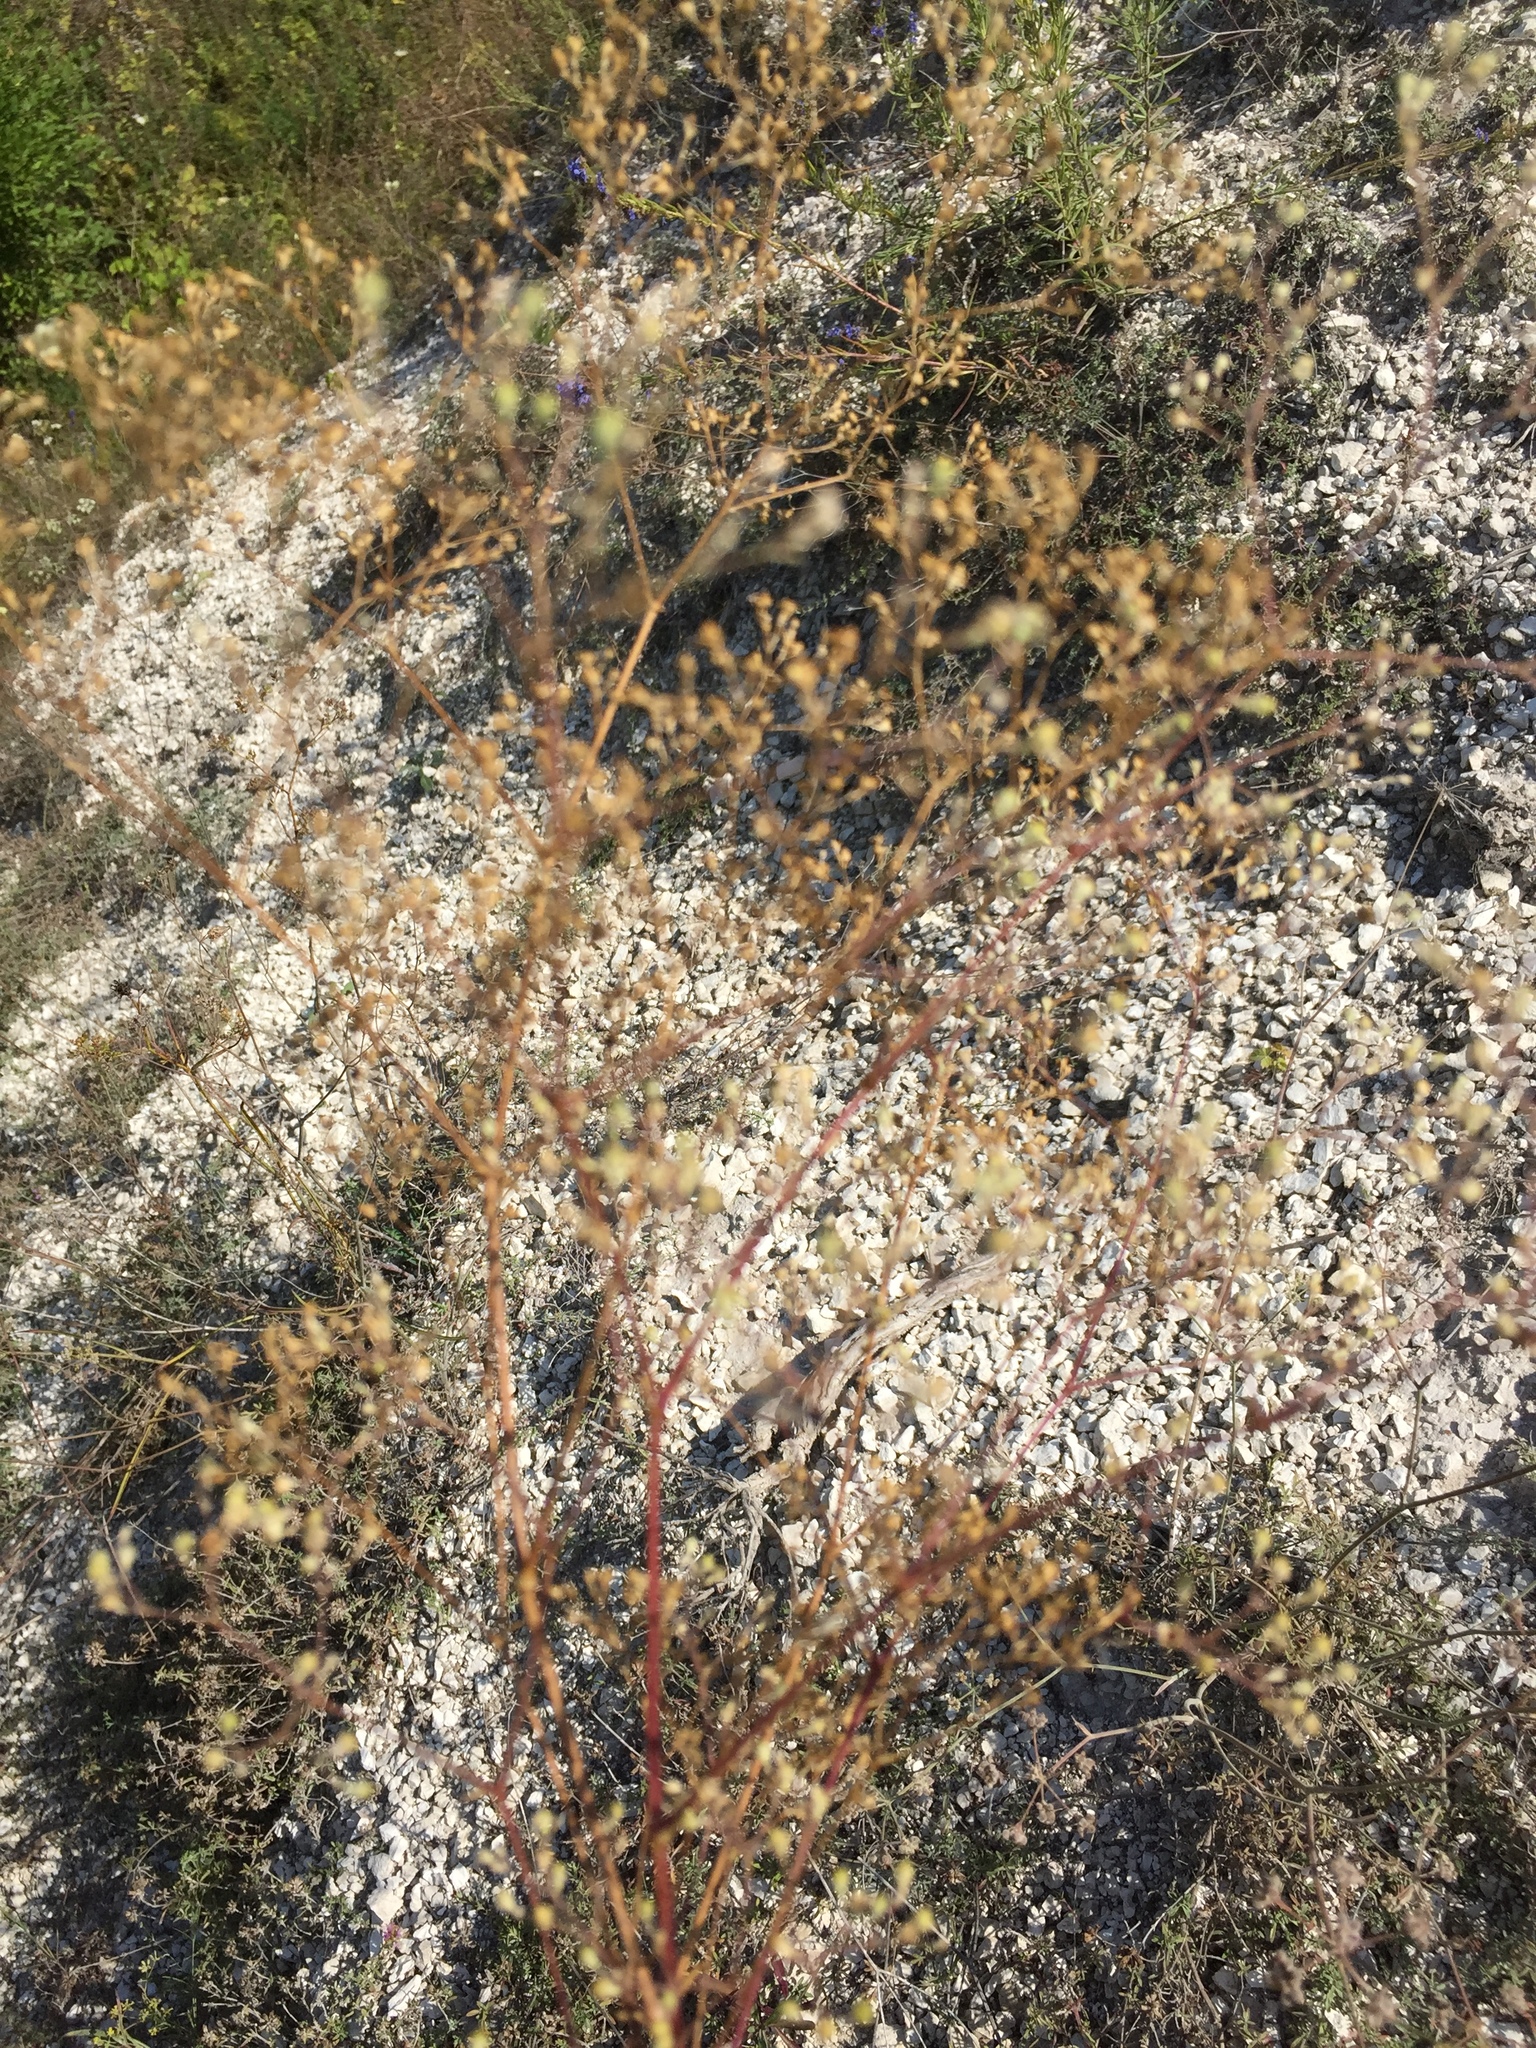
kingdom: Plantae
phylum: Tracheophyta
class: Magnoliopsida
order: Caryophyllales
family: Caryophyllaceae
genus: Gypsophila
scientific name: Gypsophila altissima
